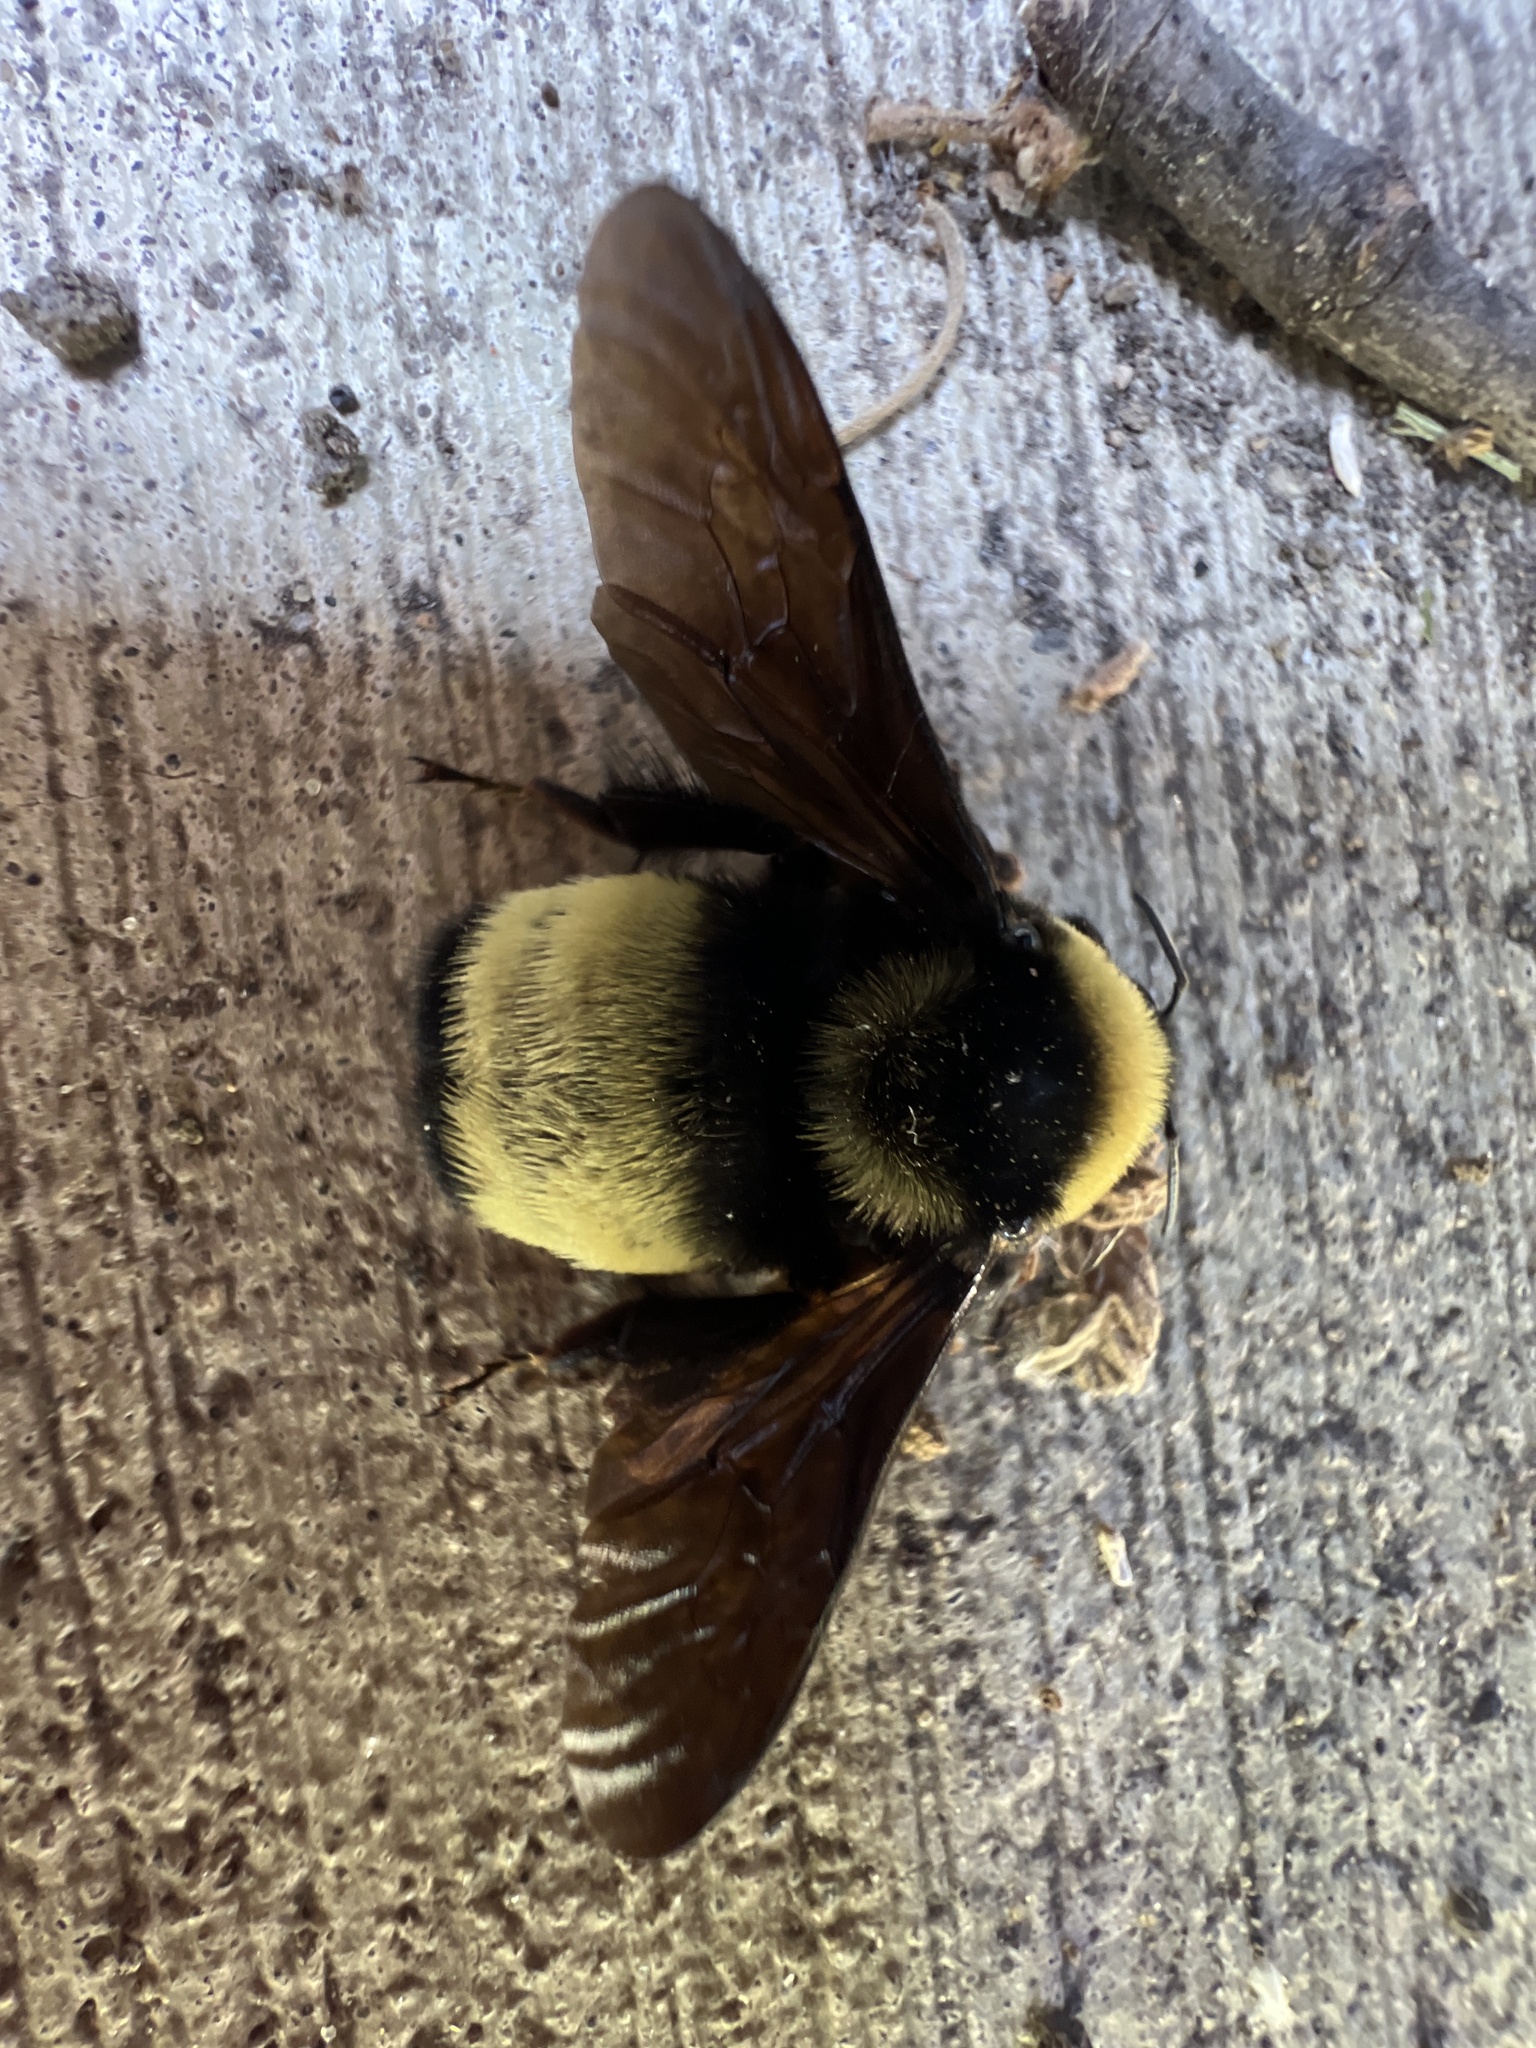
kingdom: Animalia
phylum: Arthropoda
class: Insecta
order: Hymenoptera
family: Apidae
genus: Bombus
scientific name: Bombus auricomus
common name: Black and gold bumble bee
